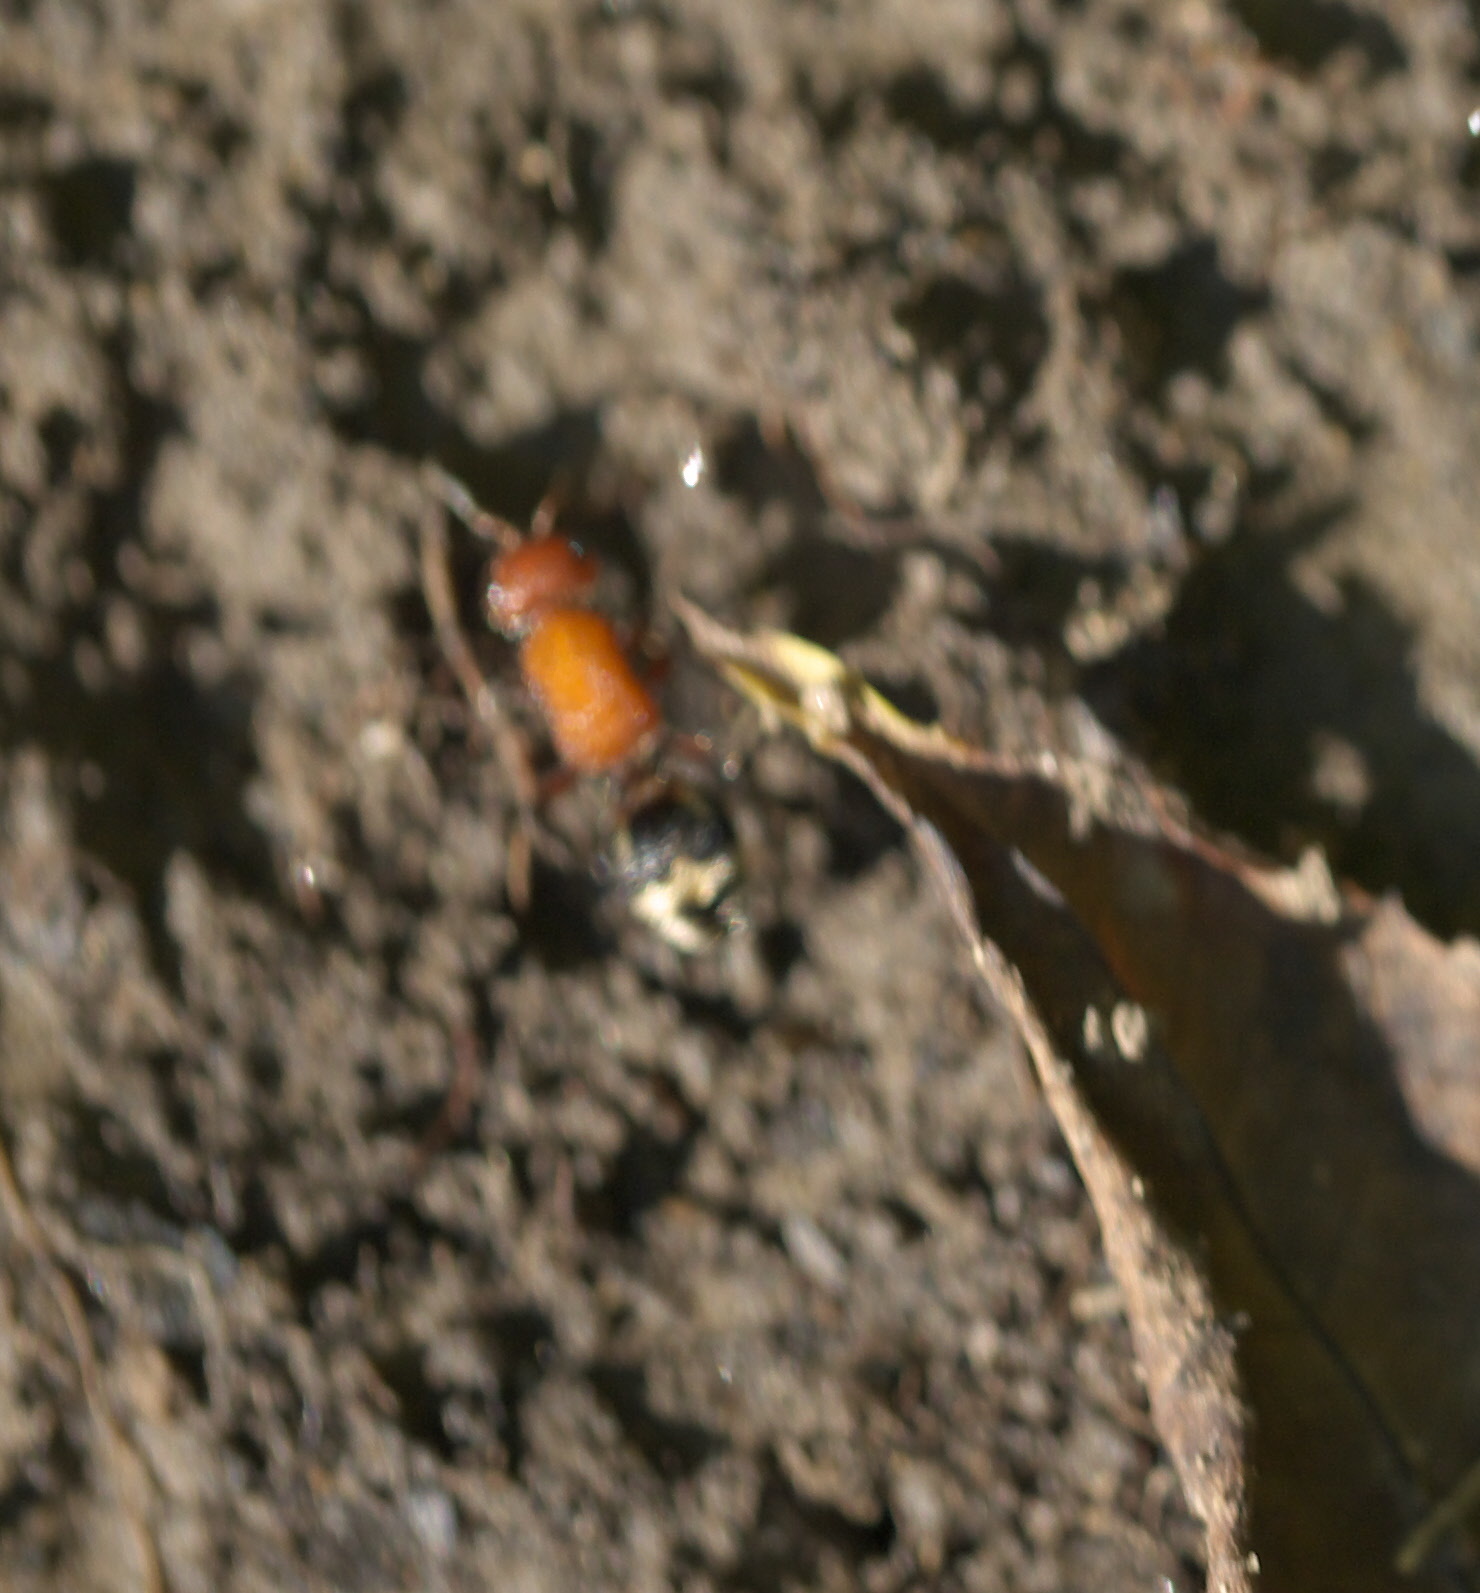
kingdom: Animalia
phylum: Arthropoda
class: Insecta
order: Hymenoptera
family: Mutillidae
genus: Timulla
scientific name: Timulla
